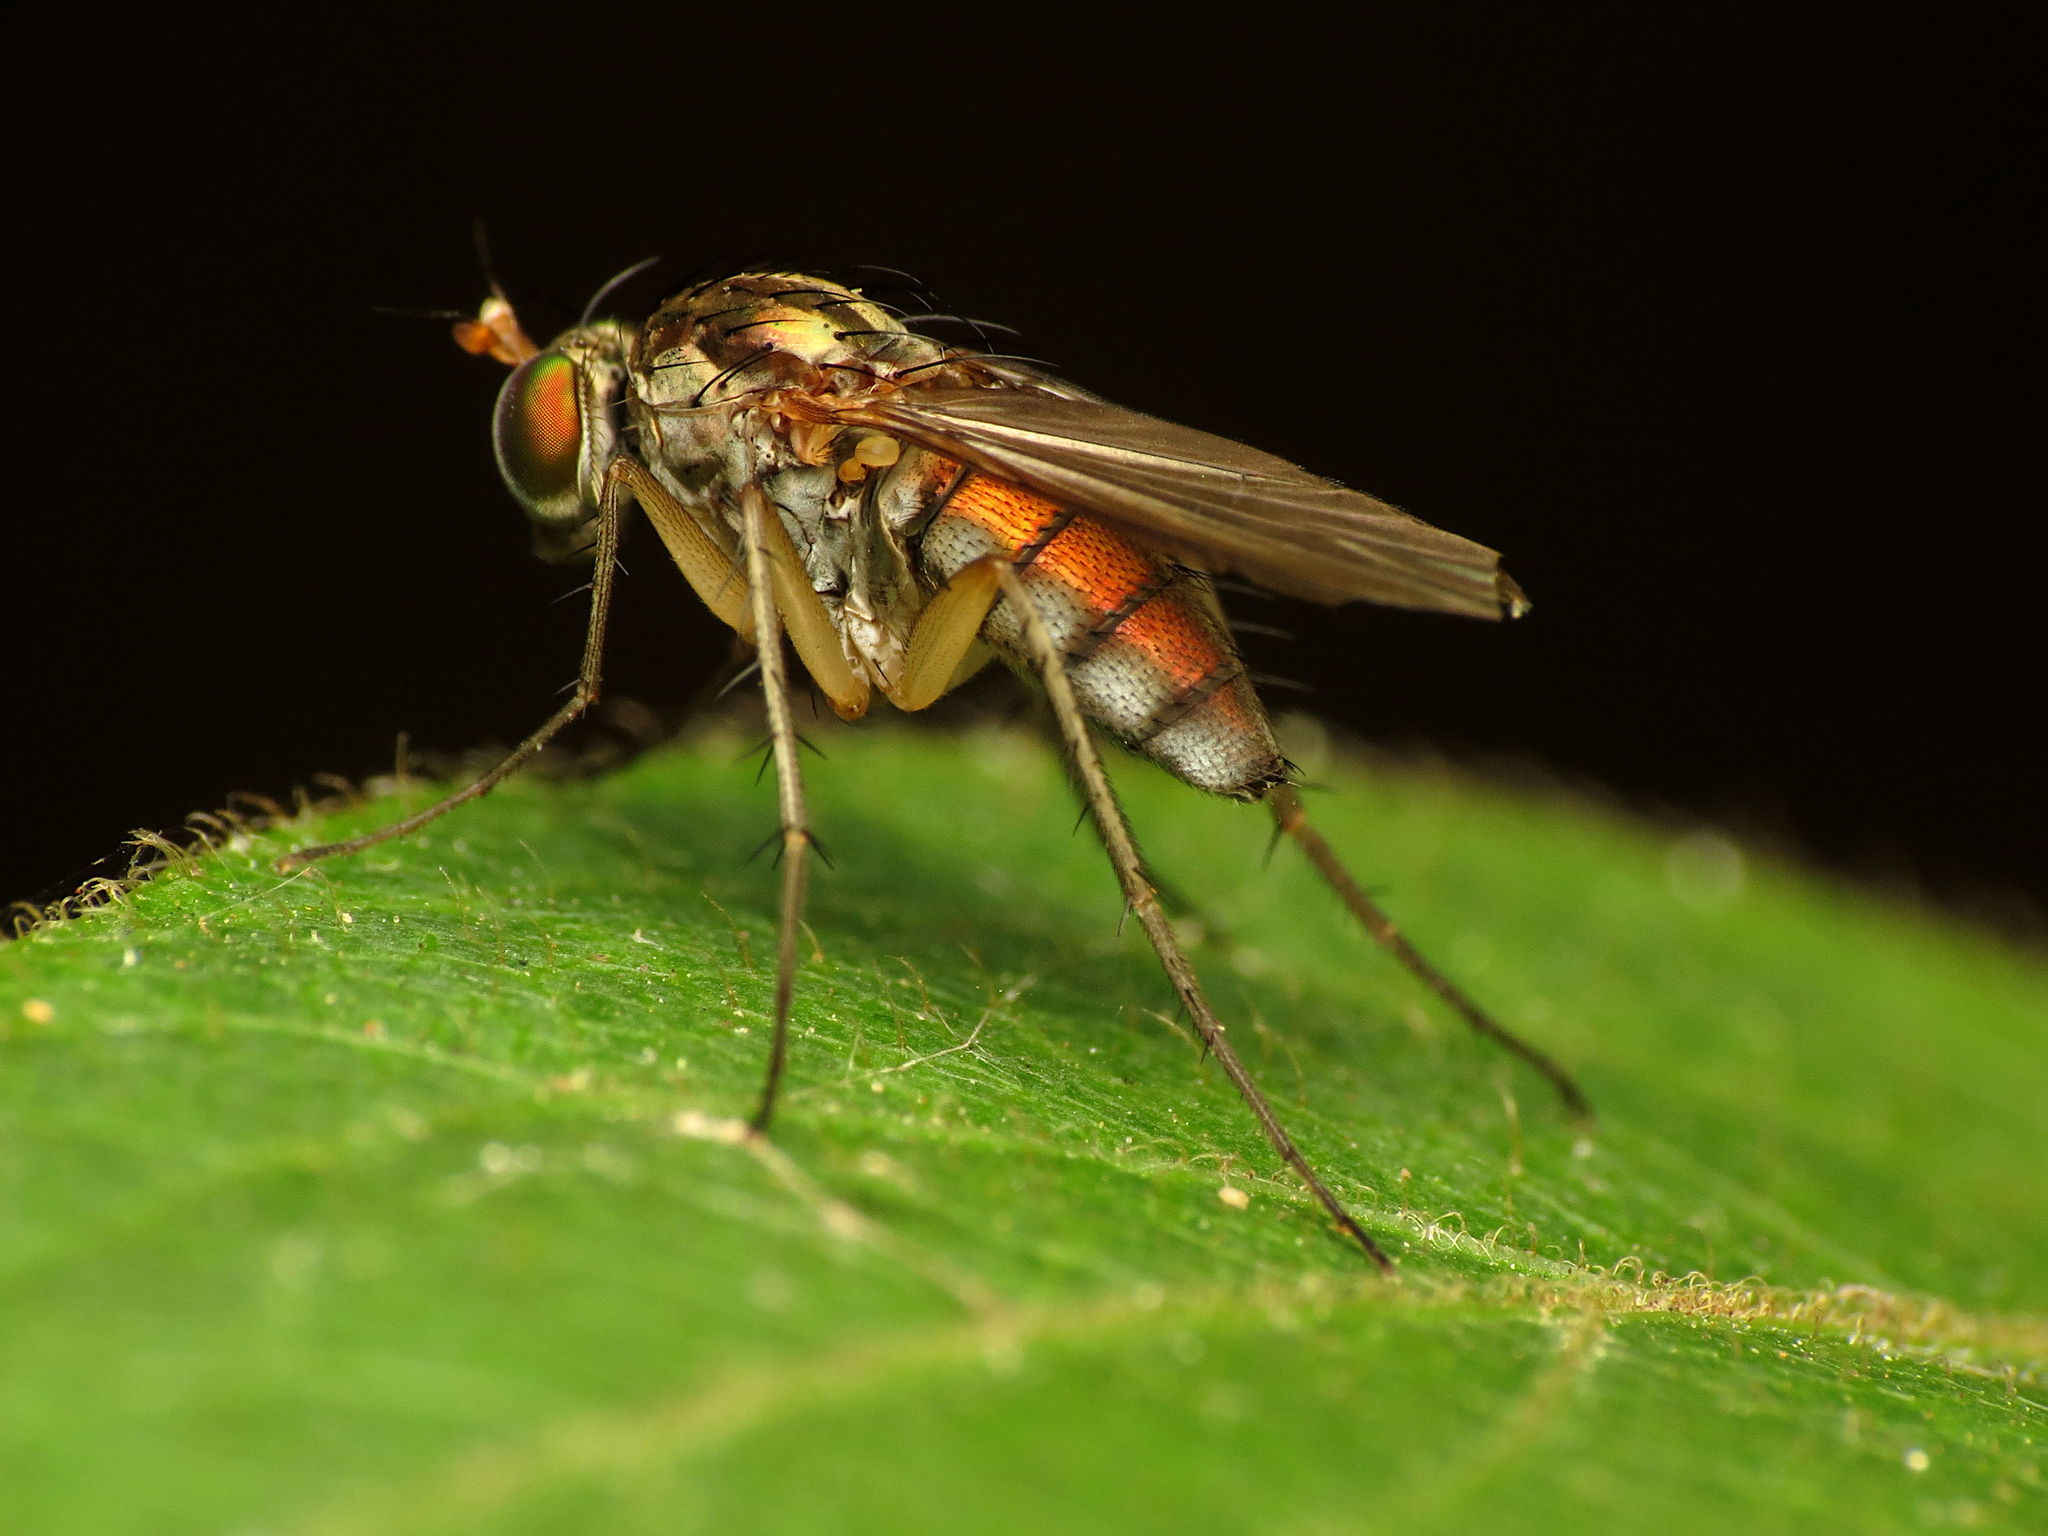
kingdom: Animalia
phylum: Arthropoda
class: Insecta
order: Diptera
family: Dolichopodidae
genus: Dolichopus
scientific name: Dolichopus scapularis
